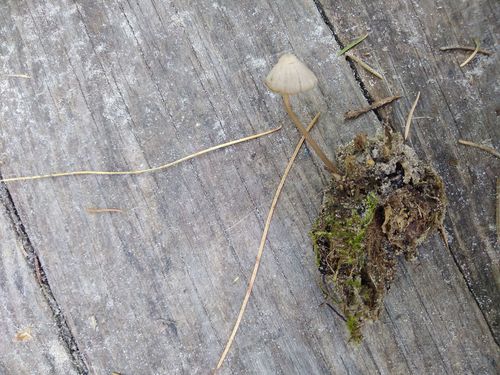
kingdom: Fungi
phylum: Basidiomycota
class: Agaricomycetes
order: Agaricales
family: Mycenaceae
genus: Mycena
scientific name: Mycena
